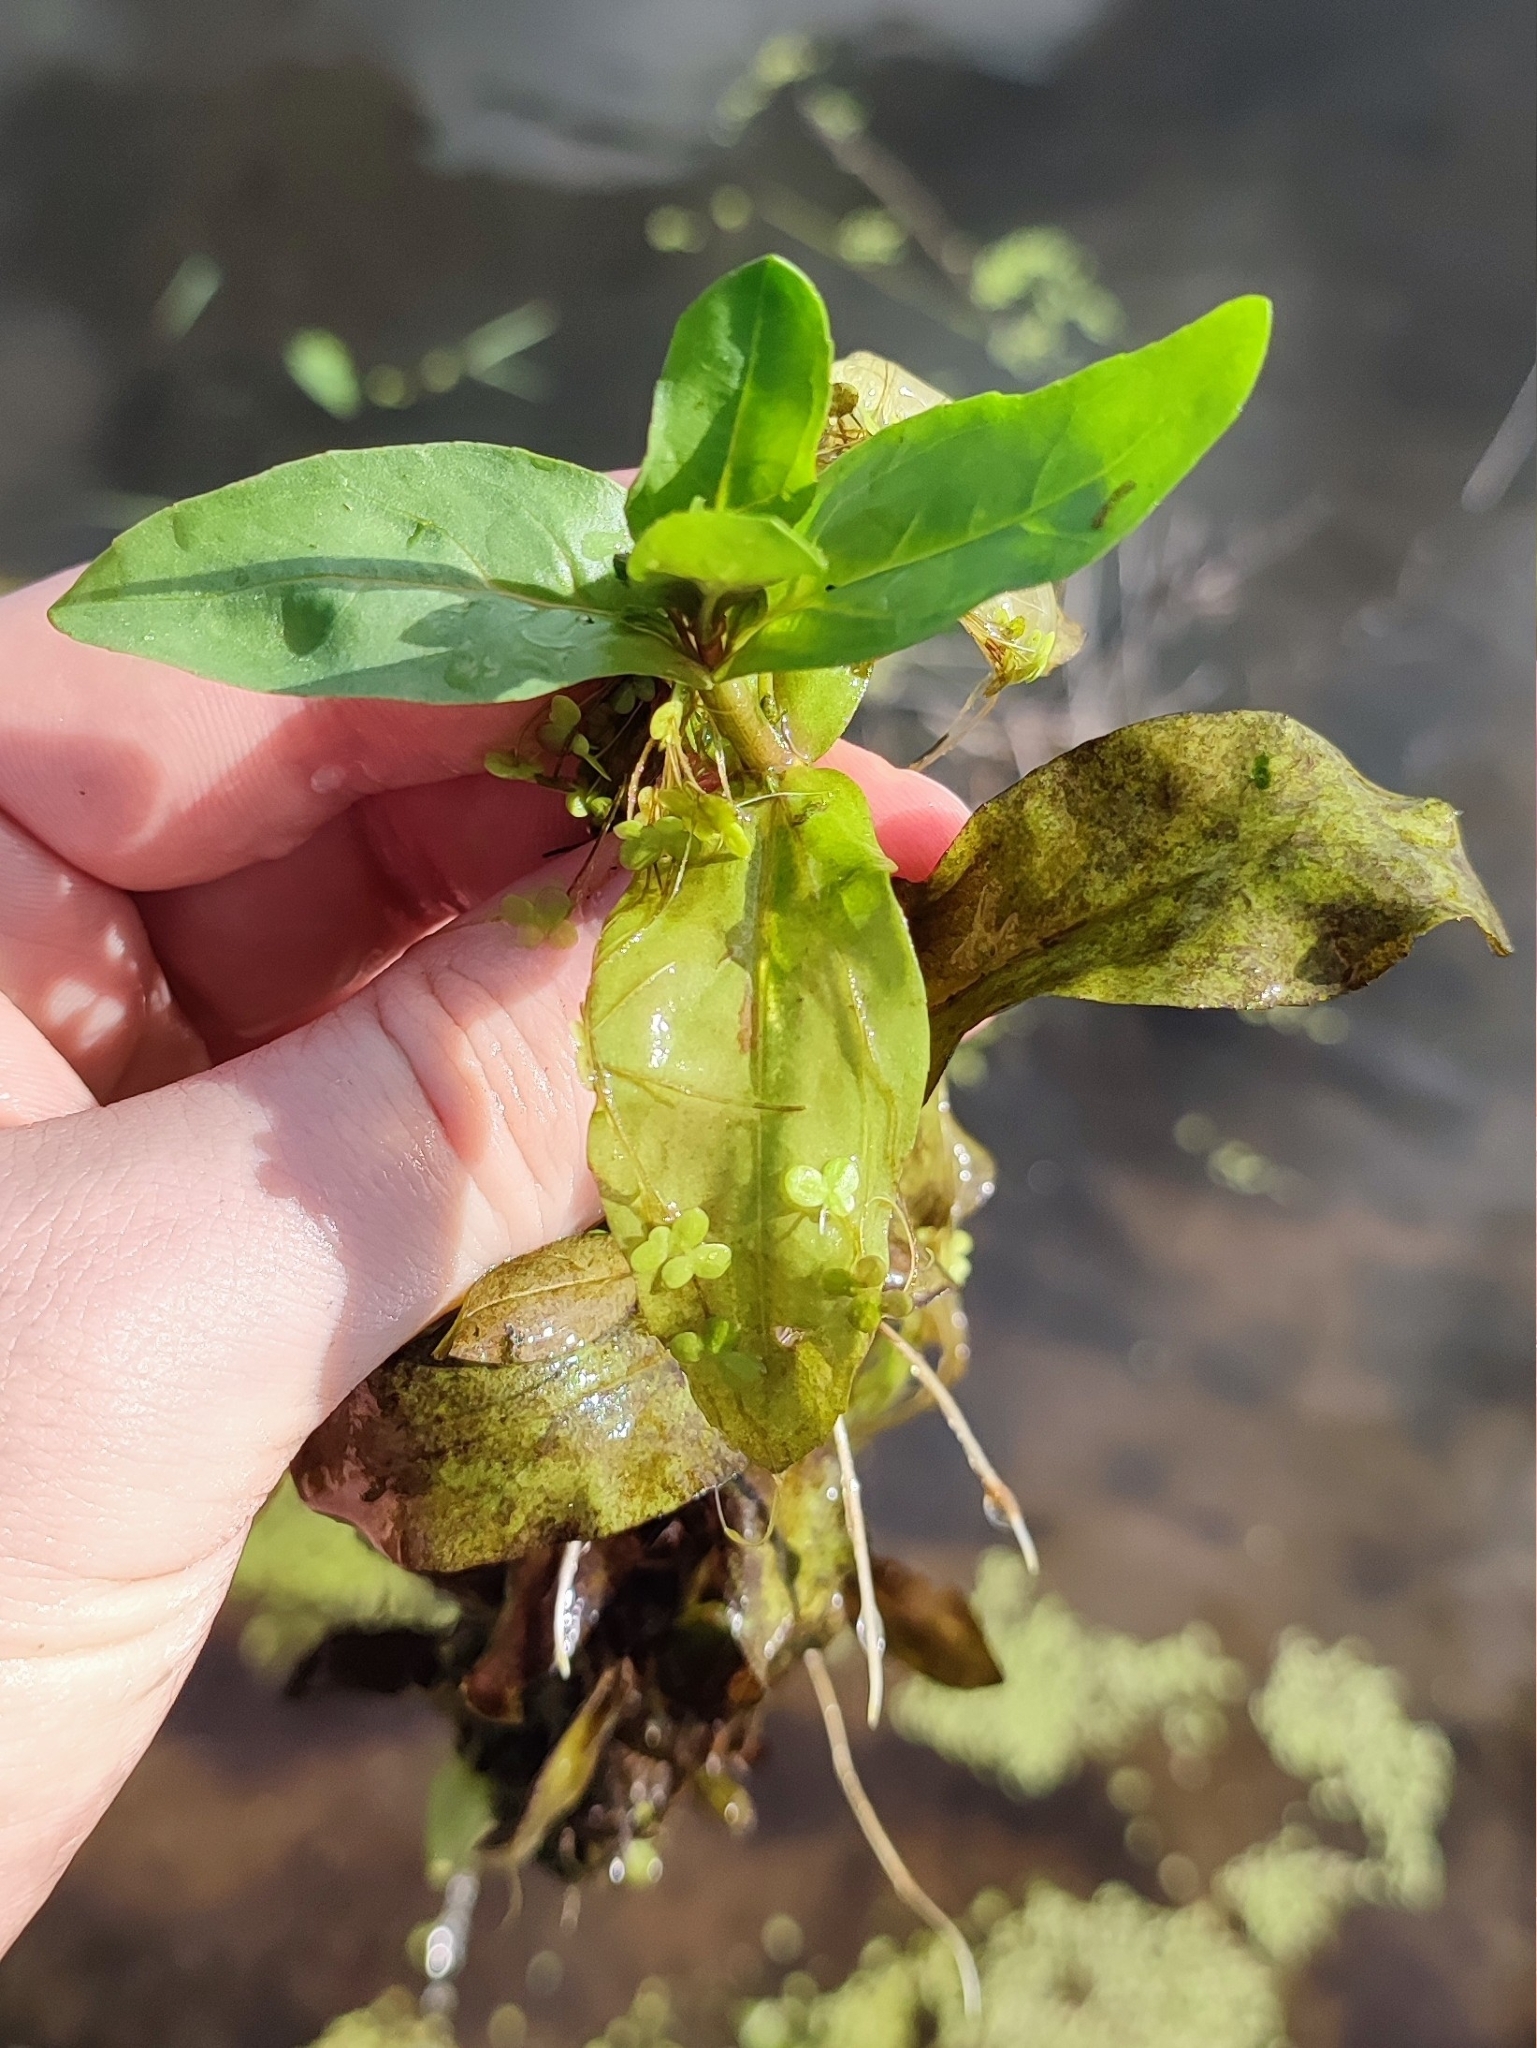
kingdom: Plantae
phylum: Tracheophyta
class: Magnoliopsida
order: Lamiales
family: Plantaginaceae
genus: Veronica
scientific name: Veronica anagallis-aquatica
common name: Water speedwell
